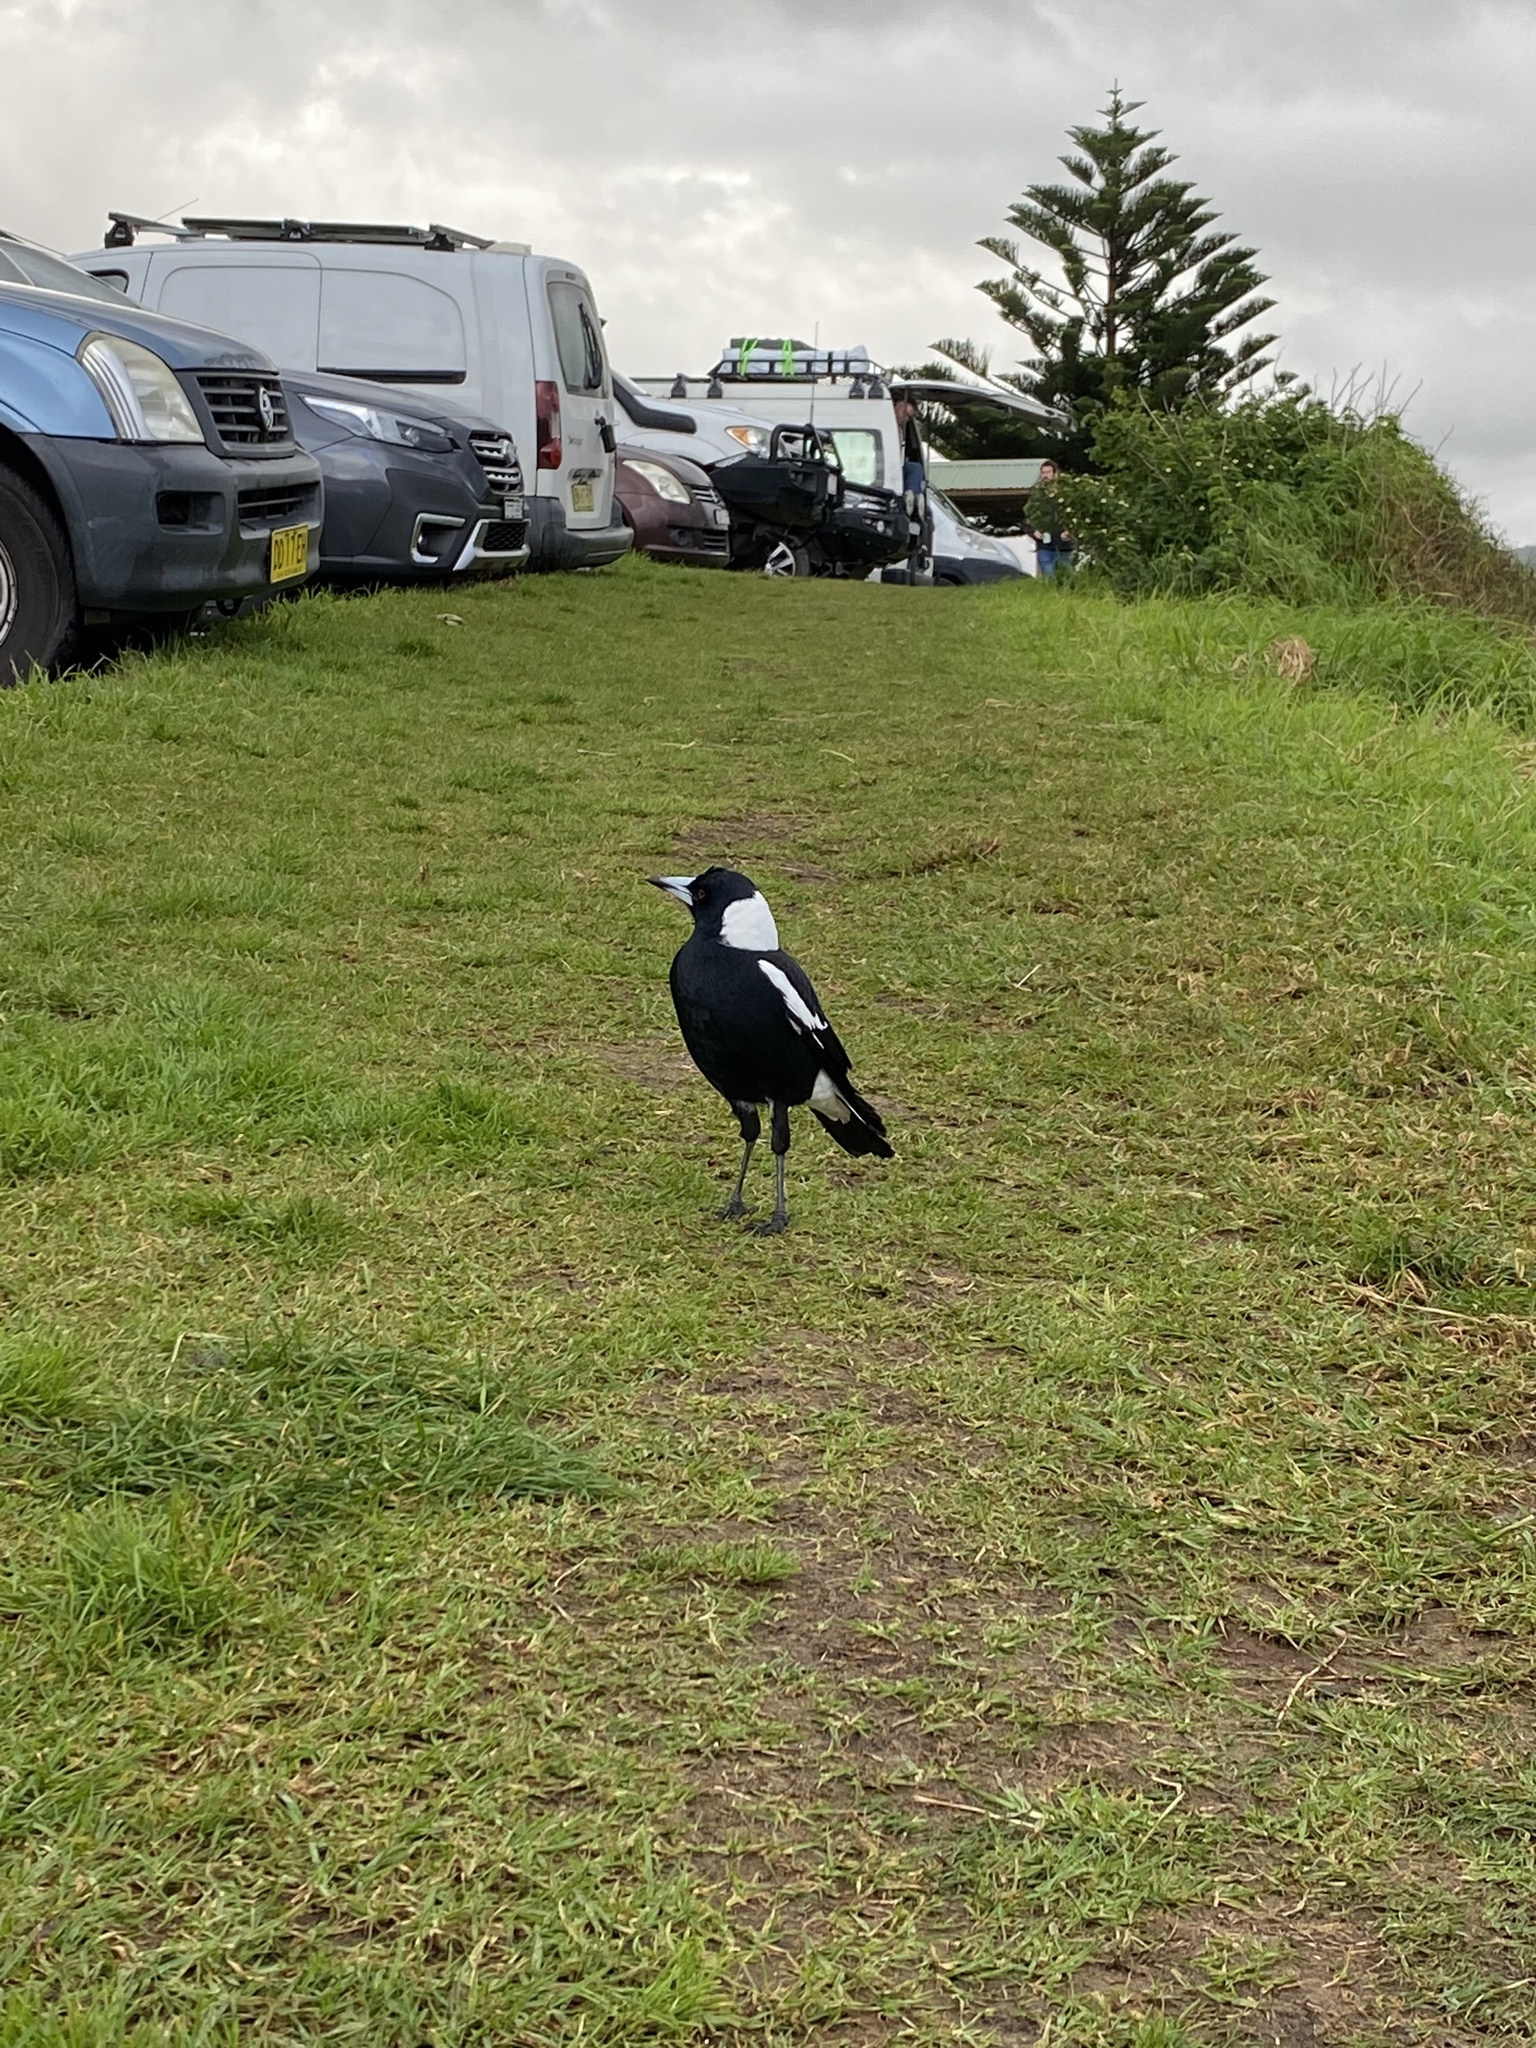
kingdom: Animalia
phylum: Chordata
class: Aves
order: Passeriformes
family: Cracticidae
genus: Gymnorhina
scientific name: Gymnorhina tibicen
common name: Australian magpie
